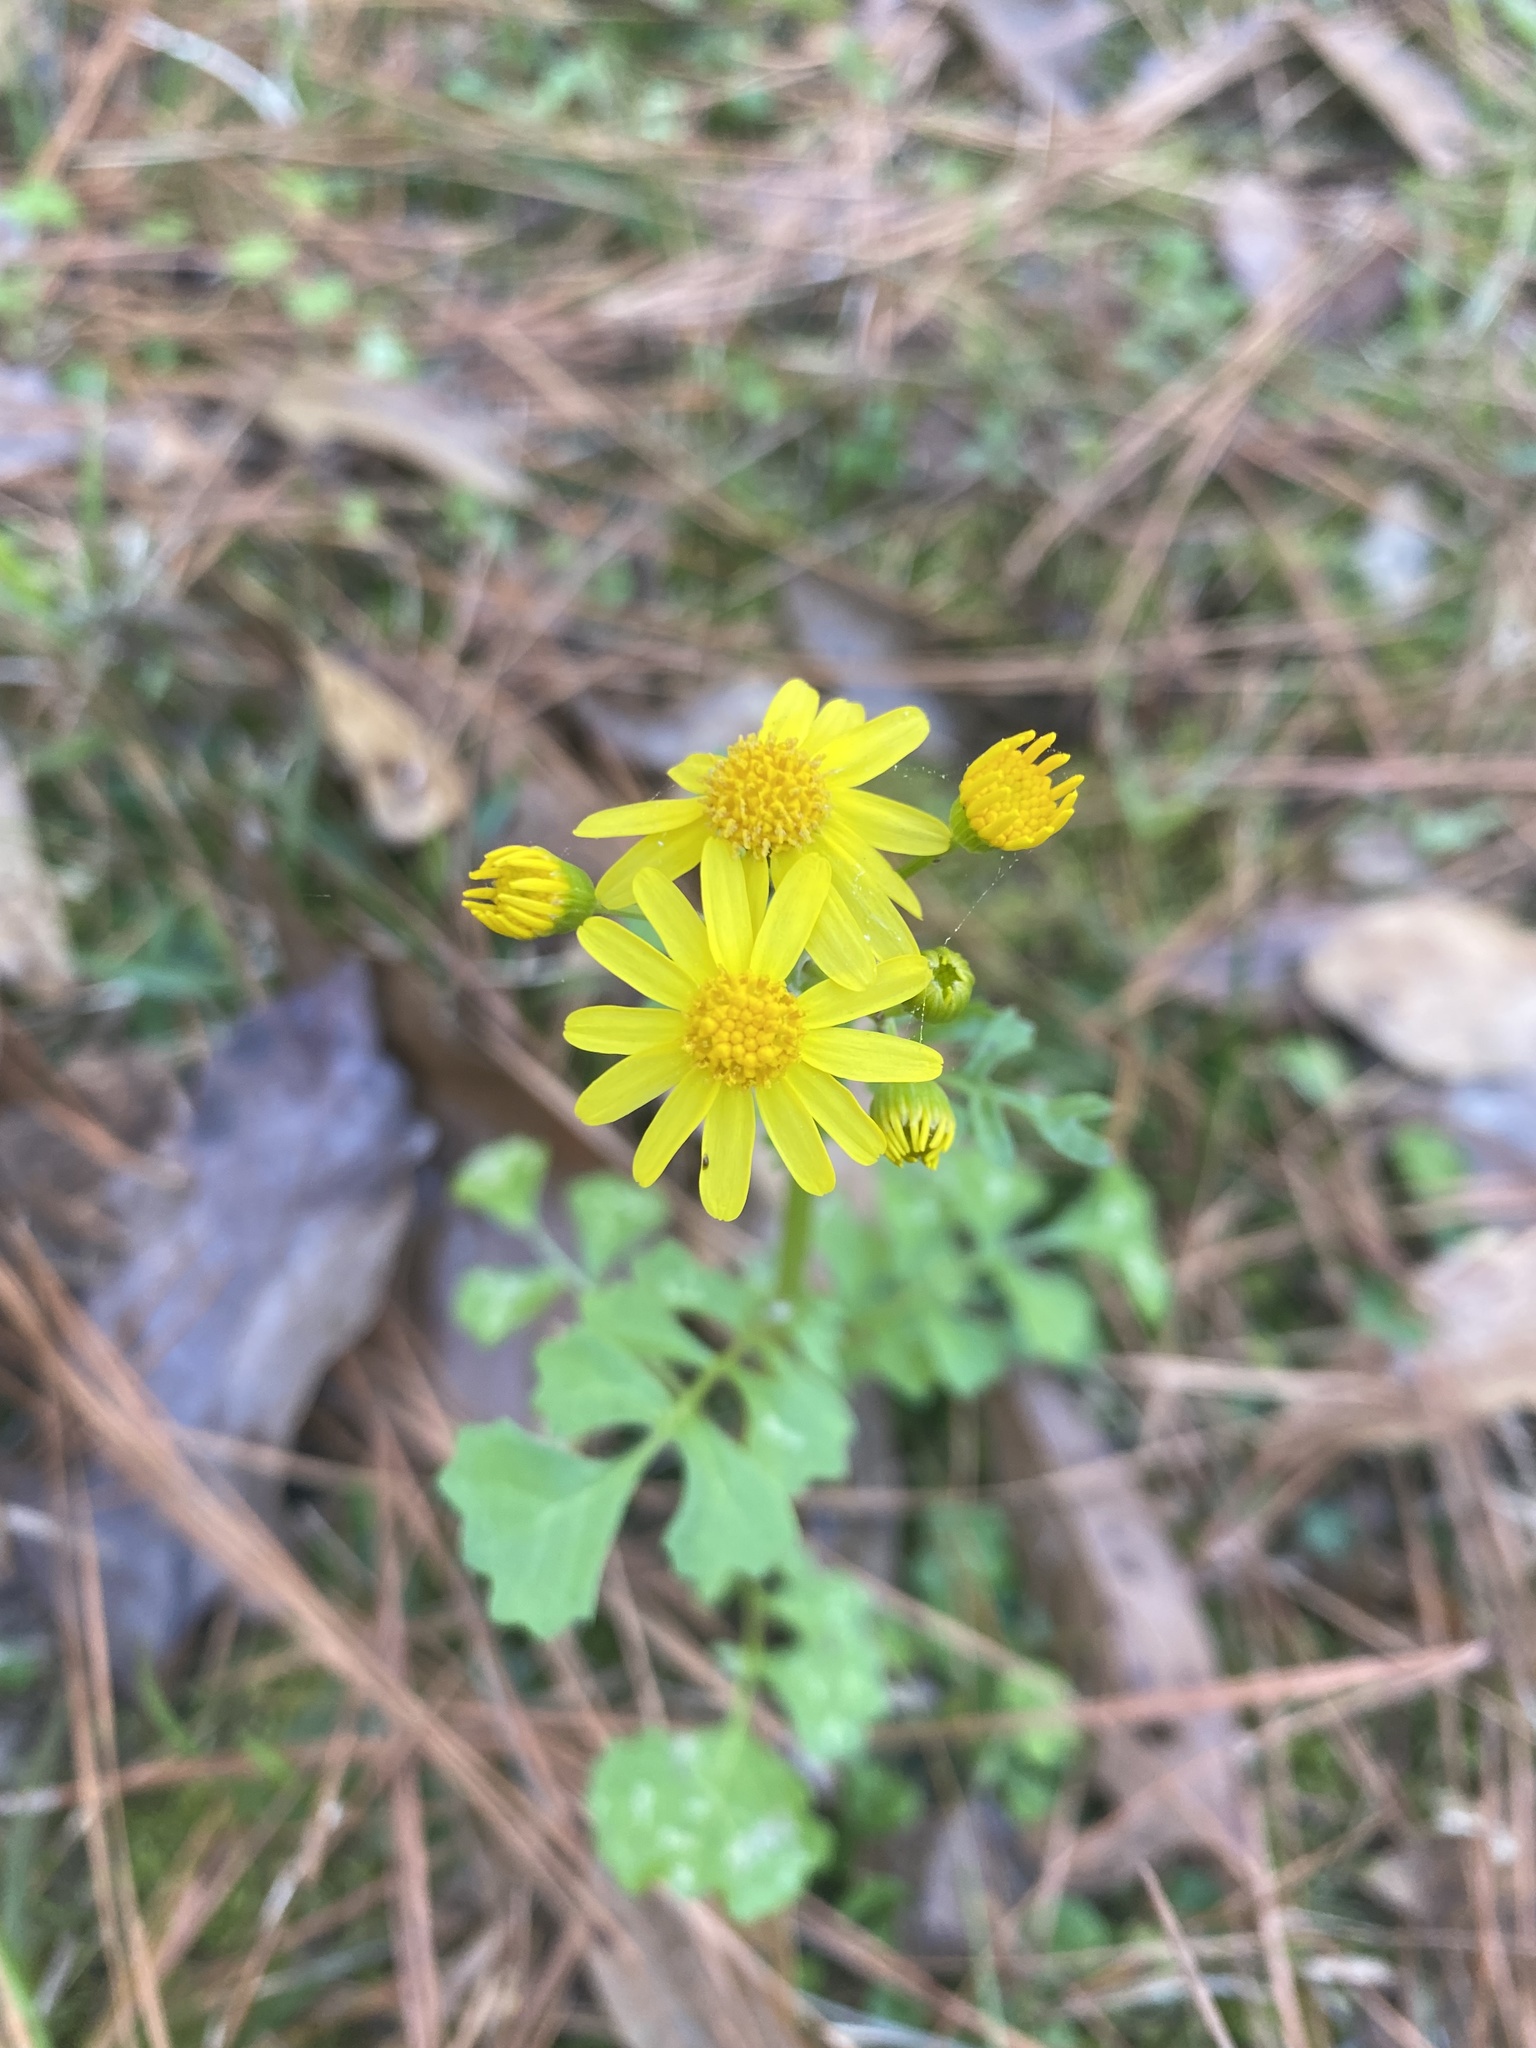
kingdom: Plantae
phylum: Tracheophyta
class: Magnoliopsida
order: Asterales
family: Asteraceae
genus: Packera
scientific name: Packera glabella
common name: Butterweed
